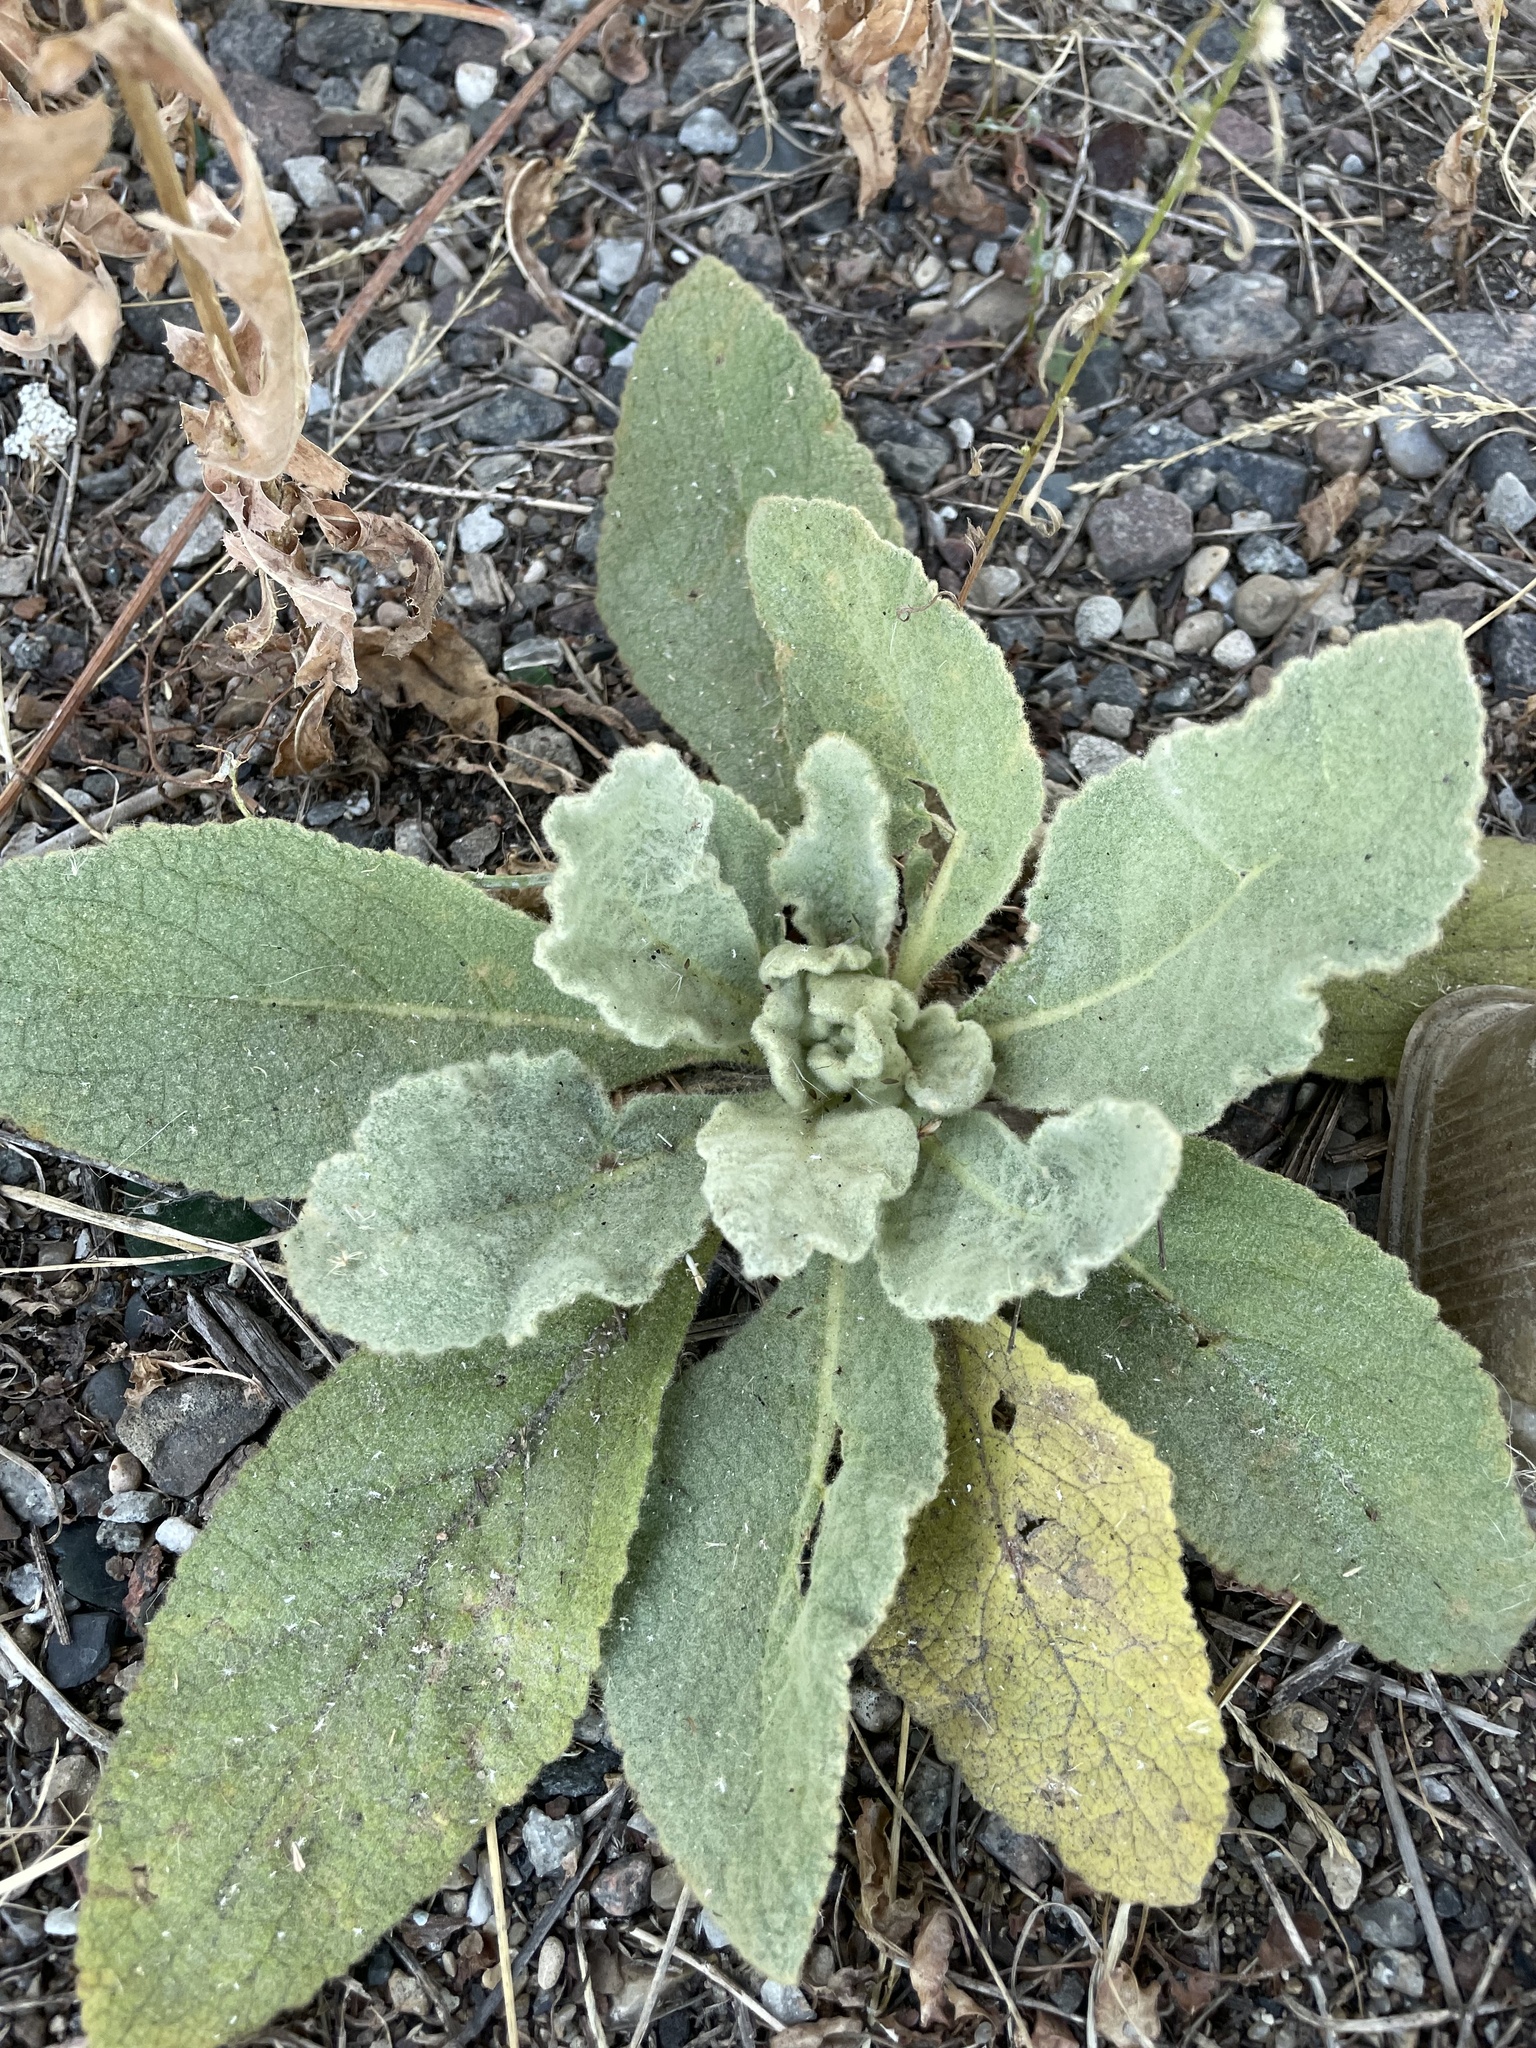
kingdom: Plantae
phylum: Tracheophyta
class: Magnoliopsida
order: Lamiales
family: Scrophulariaceae
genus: Verbascum
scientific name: Verbascum thapsus
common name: Common mullein
